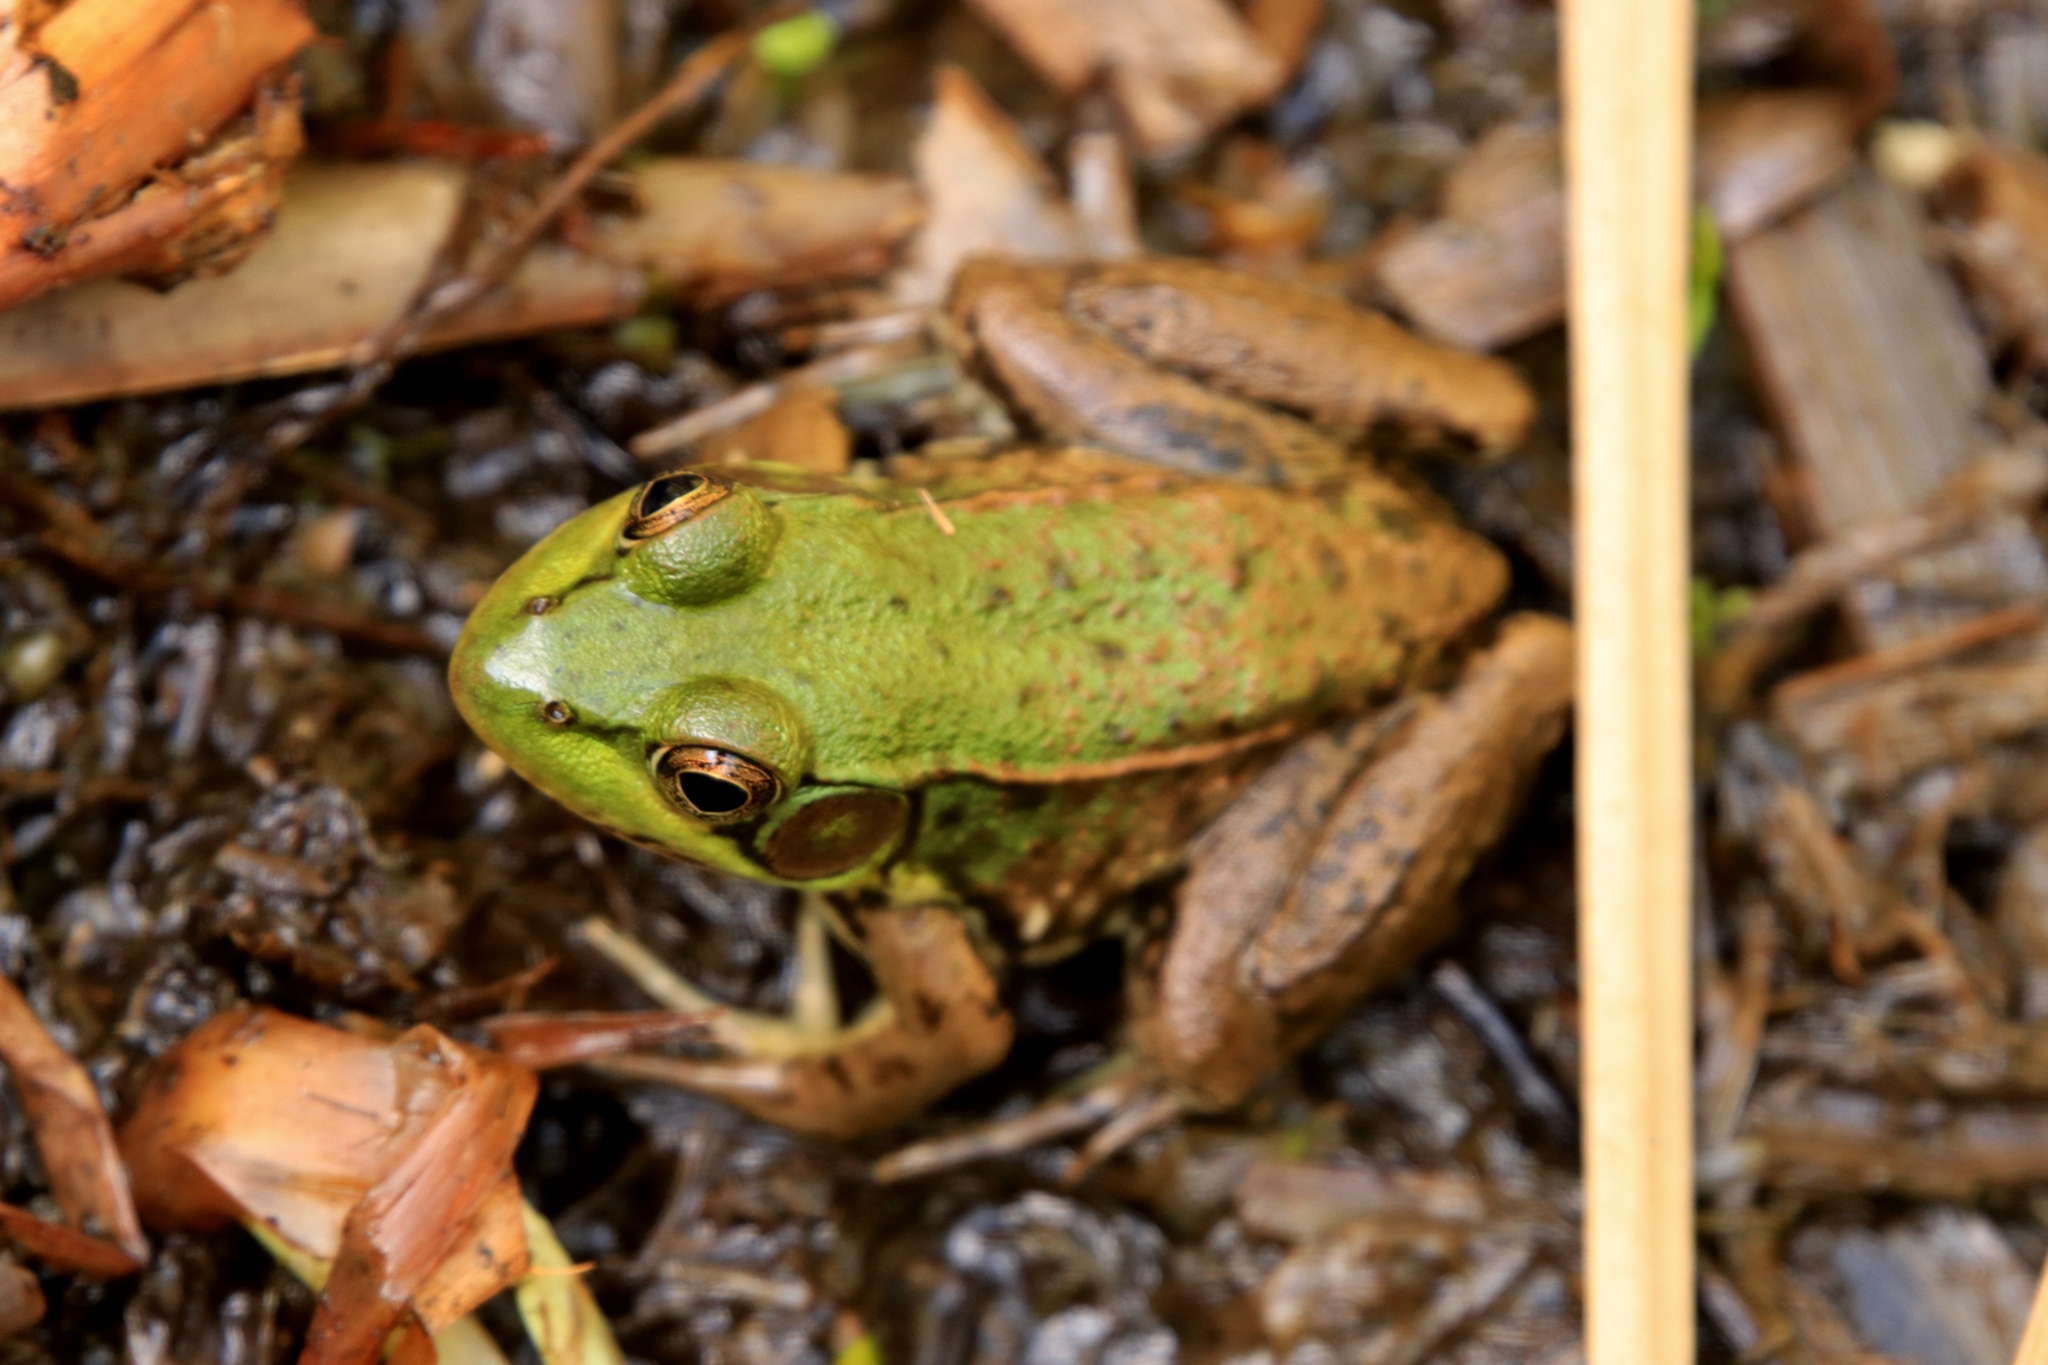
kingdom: Animalia
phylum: Chordata
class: Amphibia
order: Anura
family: Ranidae
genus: Lithobates
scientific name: Lithobates clamitans
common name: Green frog
